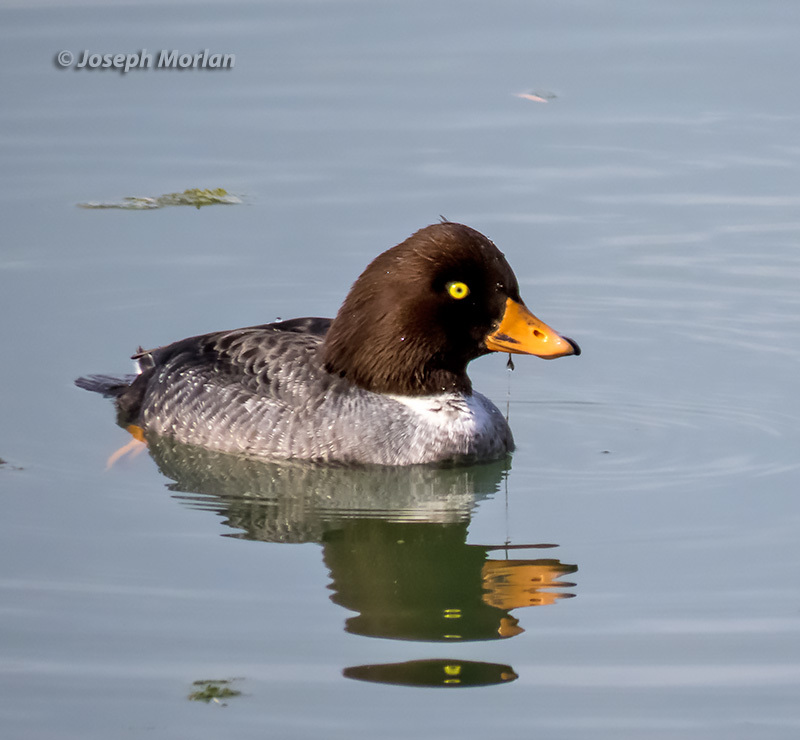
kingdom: Animalia
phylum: Chordata
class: Aves
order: Anseriformes
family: Anatidae
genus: Bucephala
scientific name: Bucephala islandica
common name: Barrow's goldeneye
